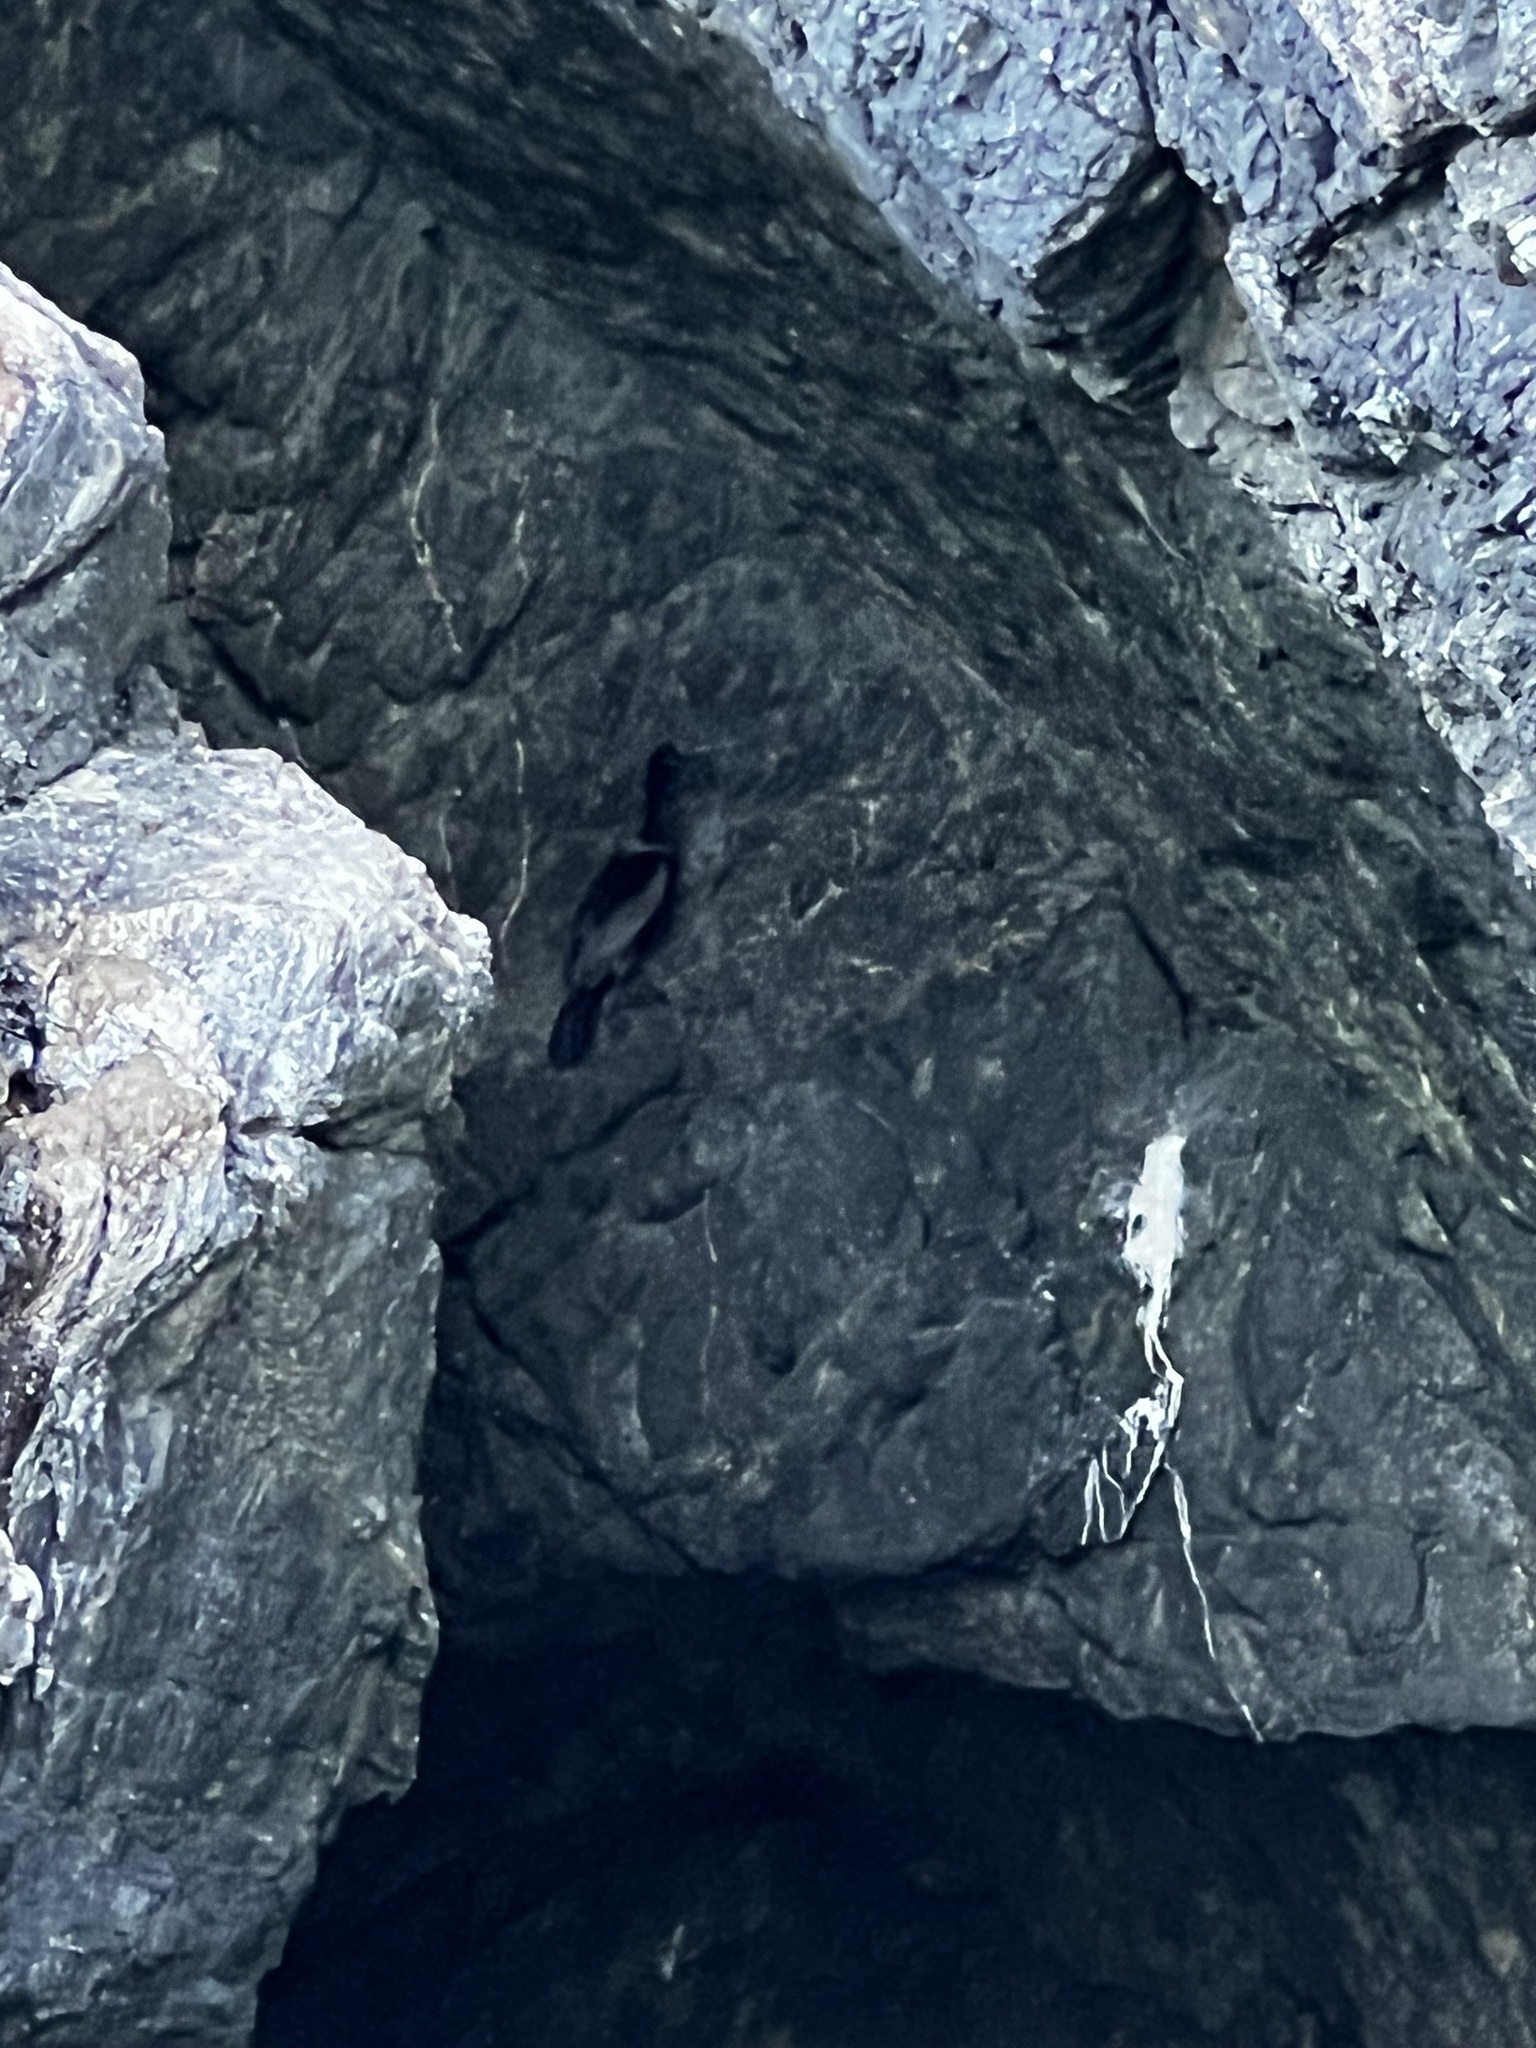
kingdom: Animalia
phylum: Chordata
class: Aves
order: Suliformes
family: Phalacrocoracidae
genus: Phalacrocorax
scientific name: Phalacrocorax pelagicus
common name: Pelagic cormorant
